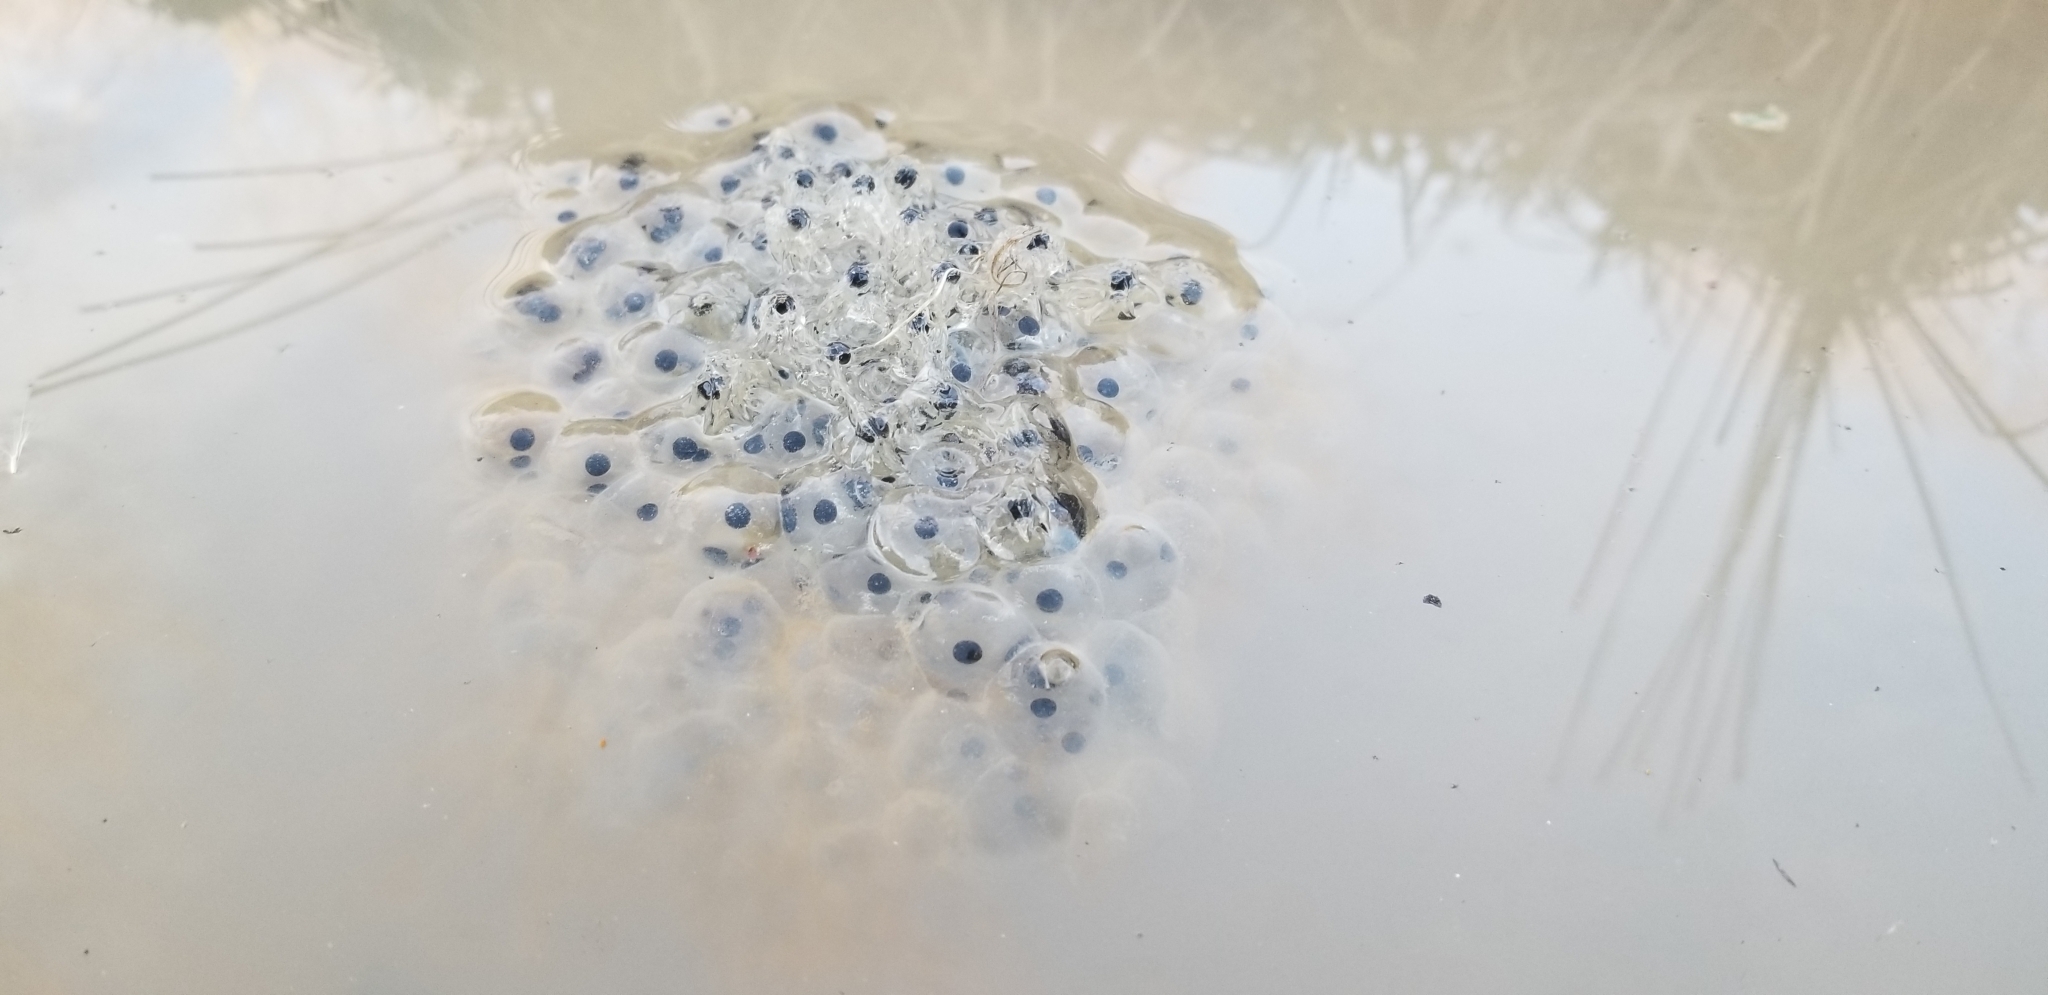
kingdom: Animalia
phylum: Chordata
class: Amphibia
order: Anura
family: Ranidae
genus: Lithobates
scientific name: Lithobates sylvaticus
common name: Wood frog
